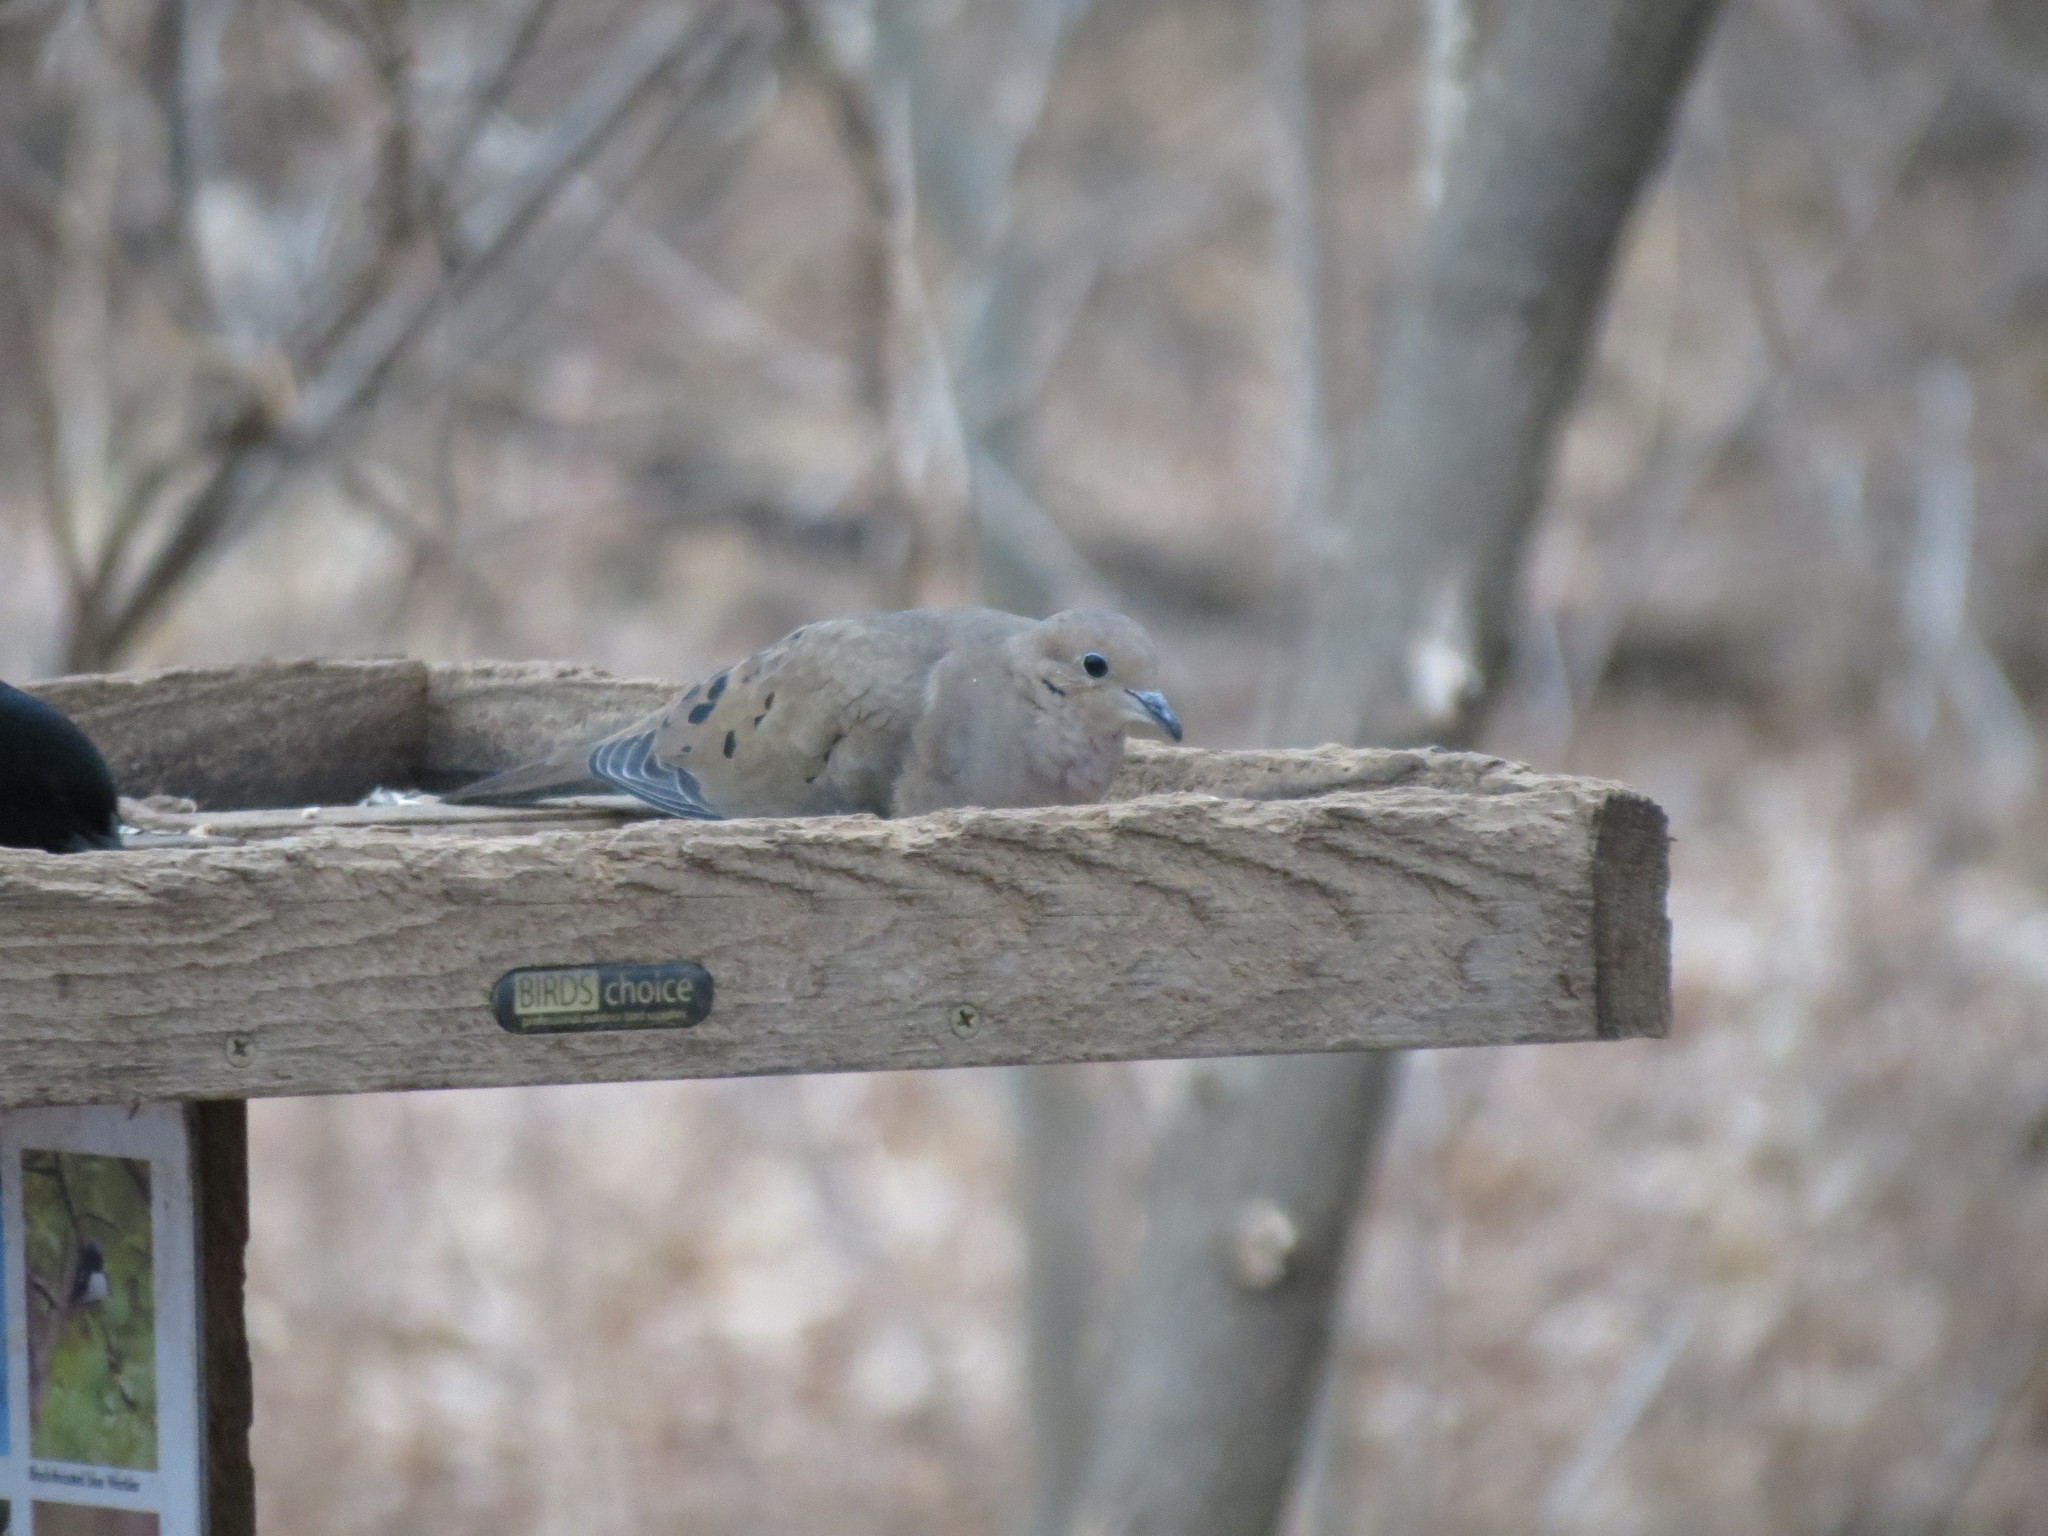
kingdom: Animalia
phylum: Chordata
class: Aves
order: Columbiformes
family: Columbidae
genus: Zenaida
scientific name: Zenaida macroura
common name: Mourning dove
